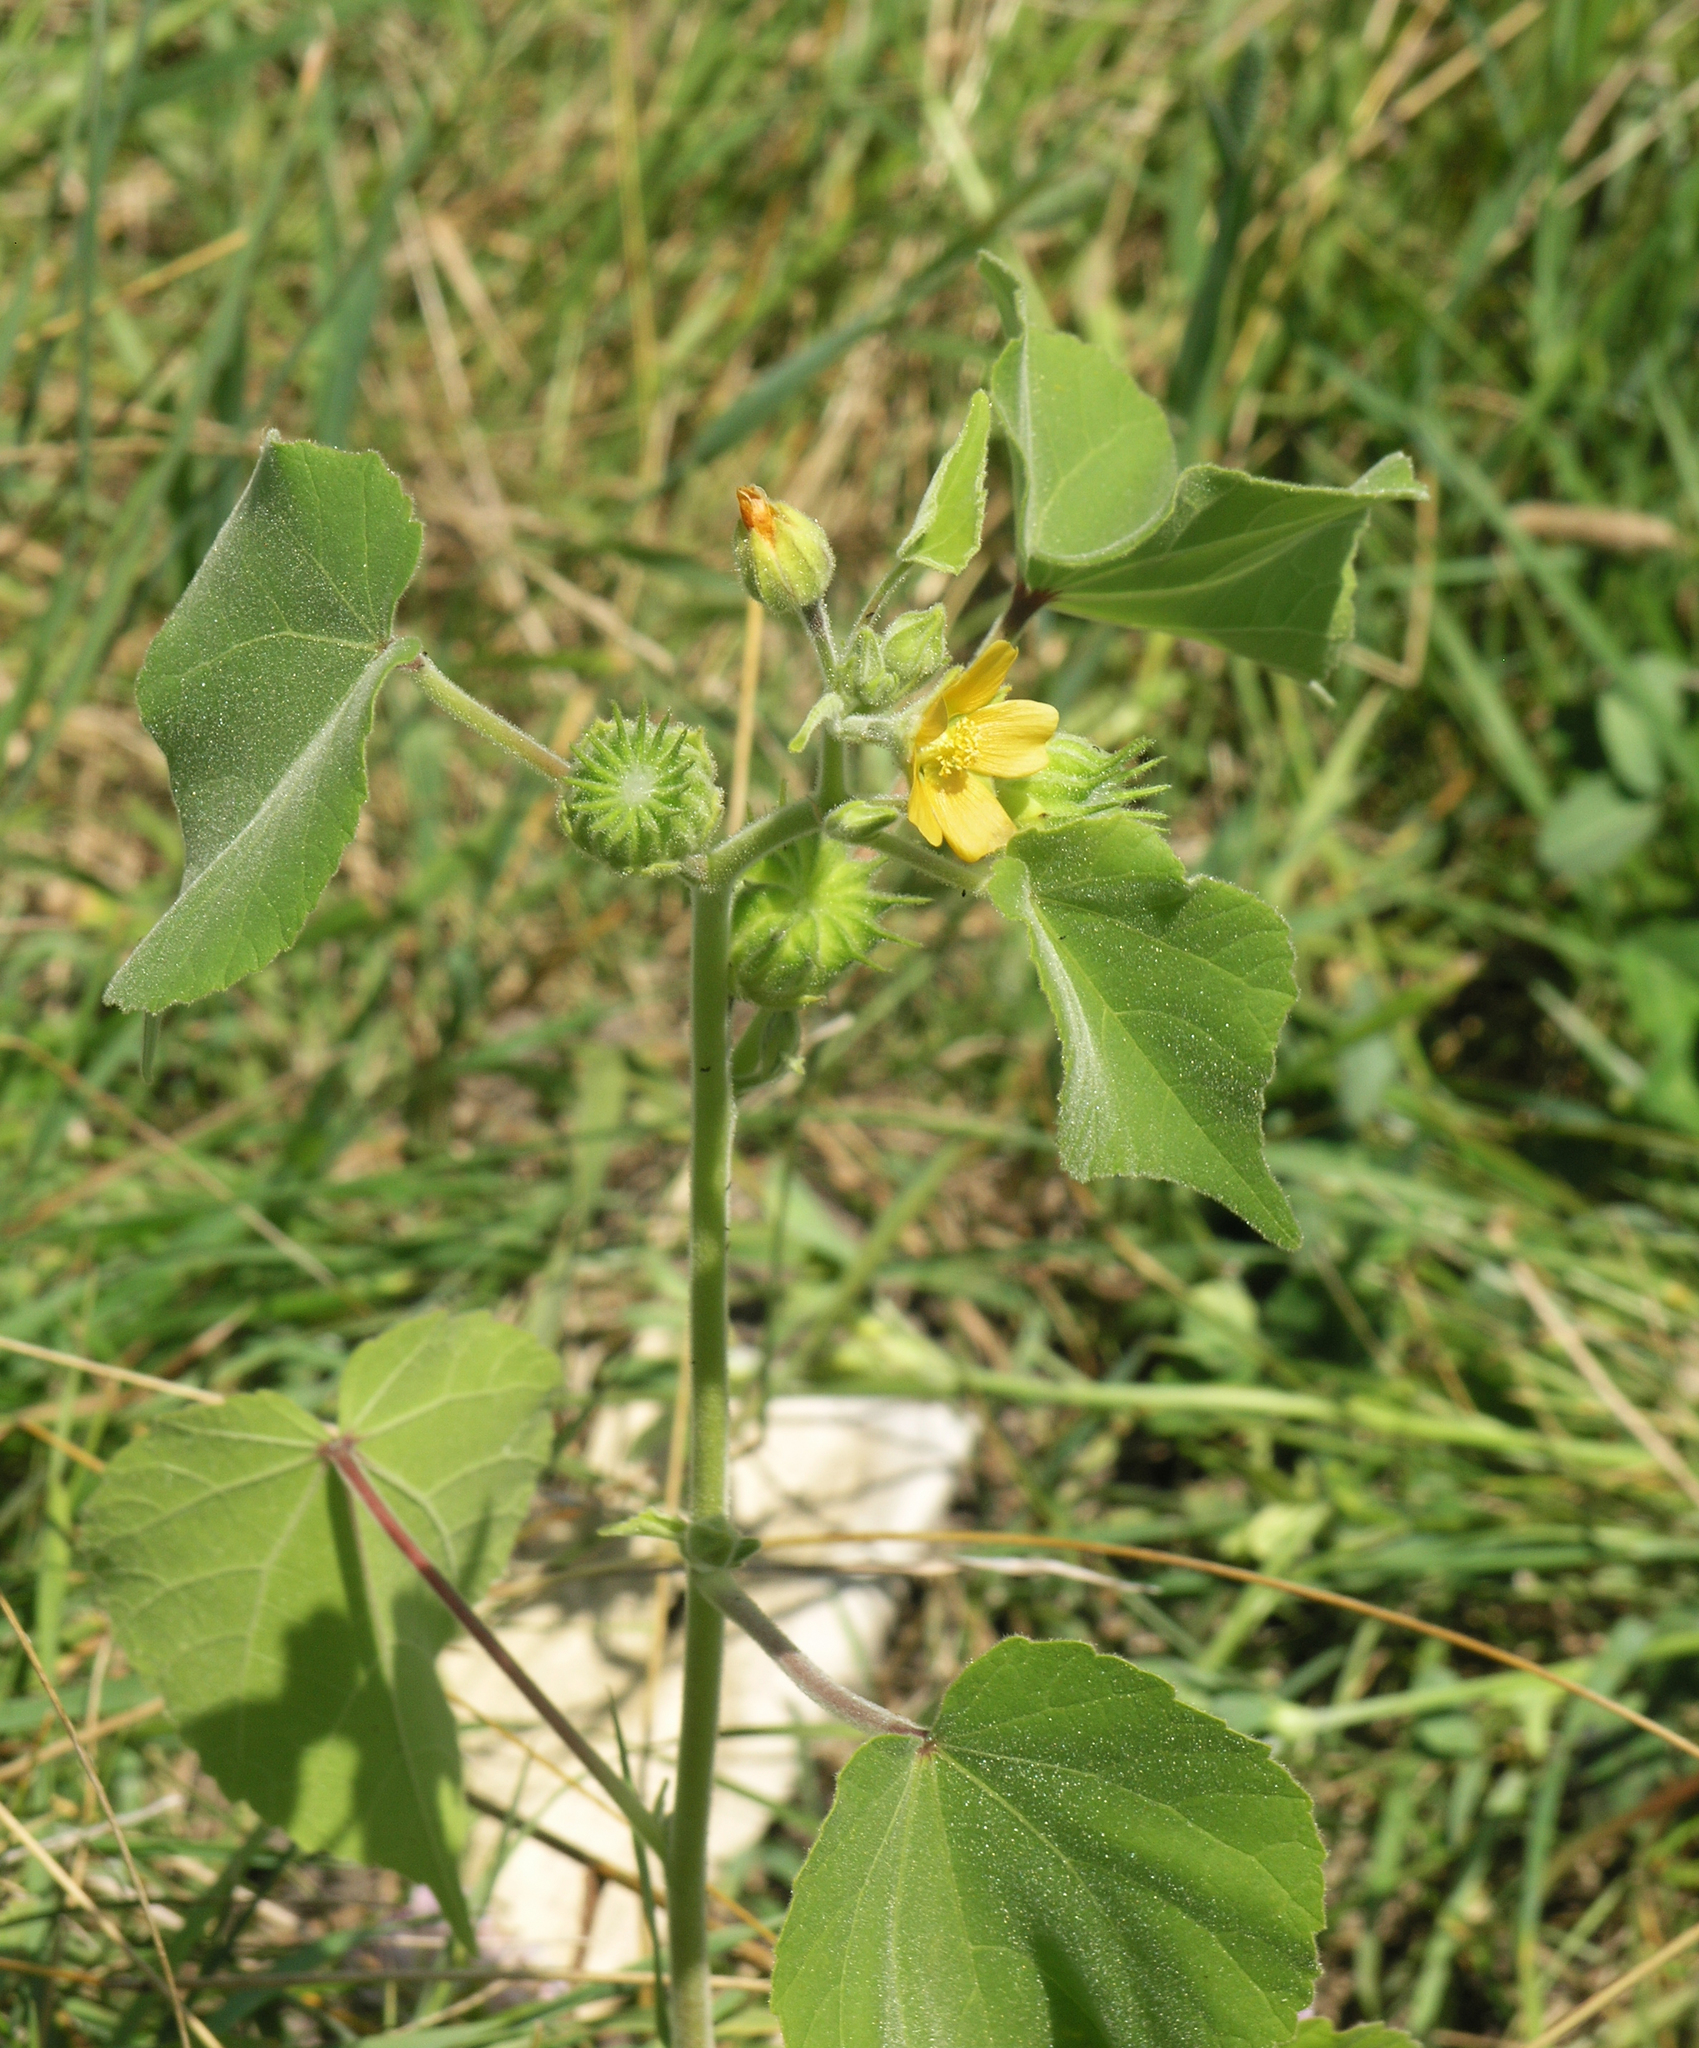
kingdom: Plantae
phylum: Tracheophyta
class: Magnoliopsida
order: Malvales
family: Malvaceae
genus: Abutilon
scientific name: Abutilon theophrasti
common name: Velvetleaf
